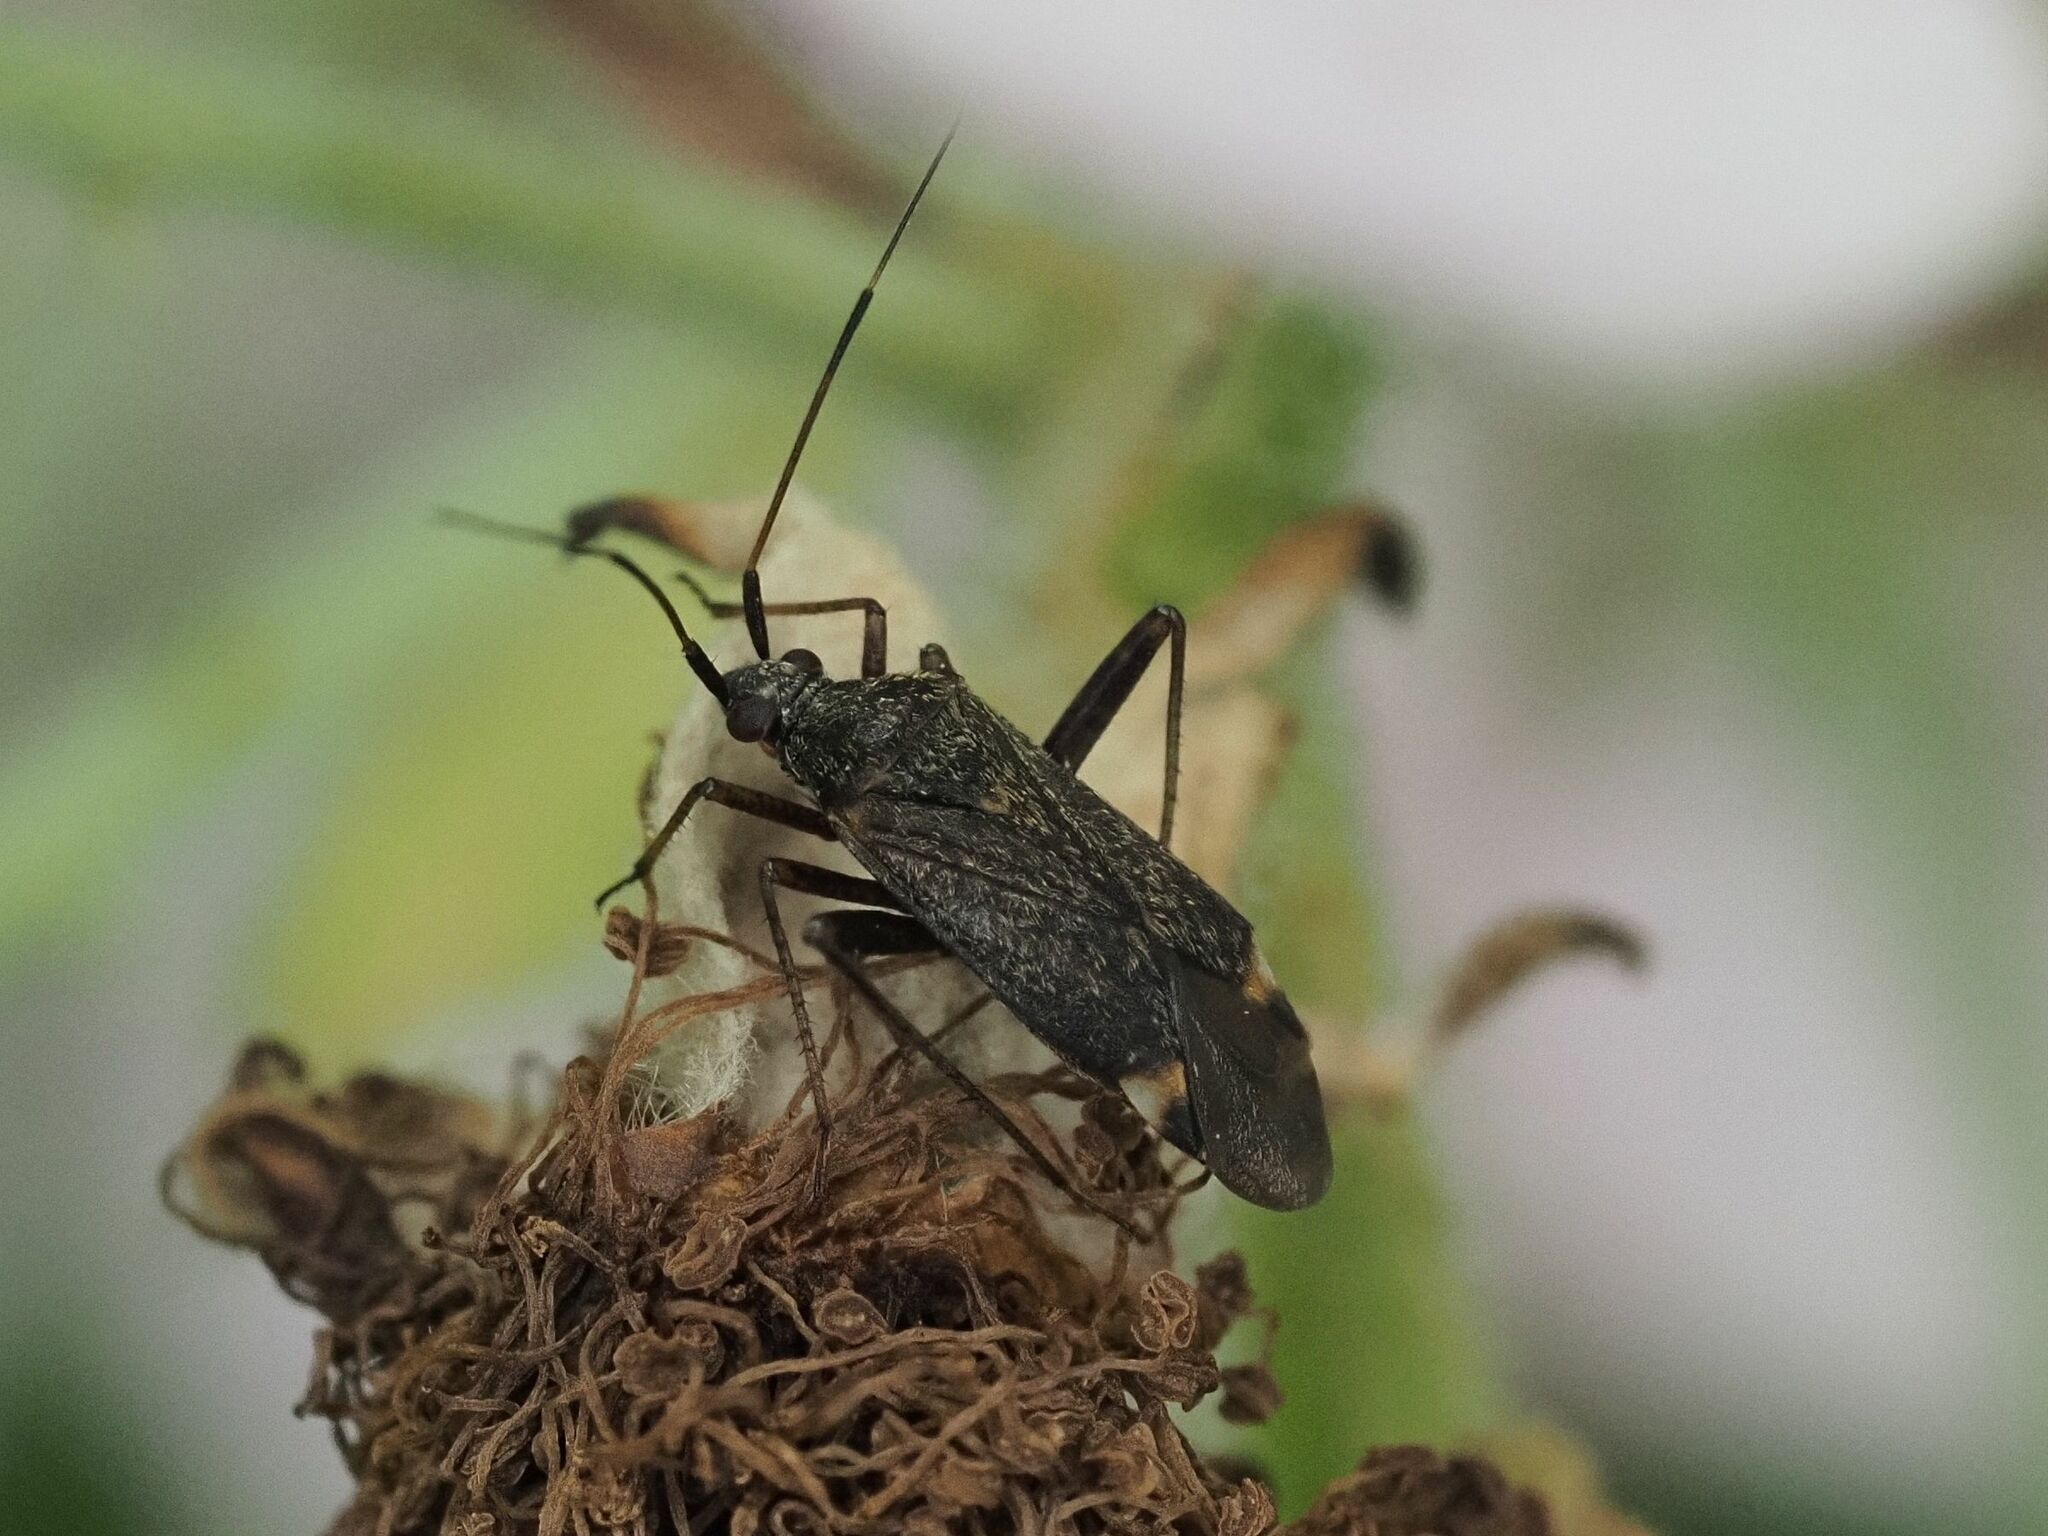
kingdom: Animalia
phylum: Arthropoda
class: Insecta
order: Hemiptera
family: Miridae
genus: Closterotomus
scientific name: Closterotomus fulvomaculatus
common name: Spotted plant bug
